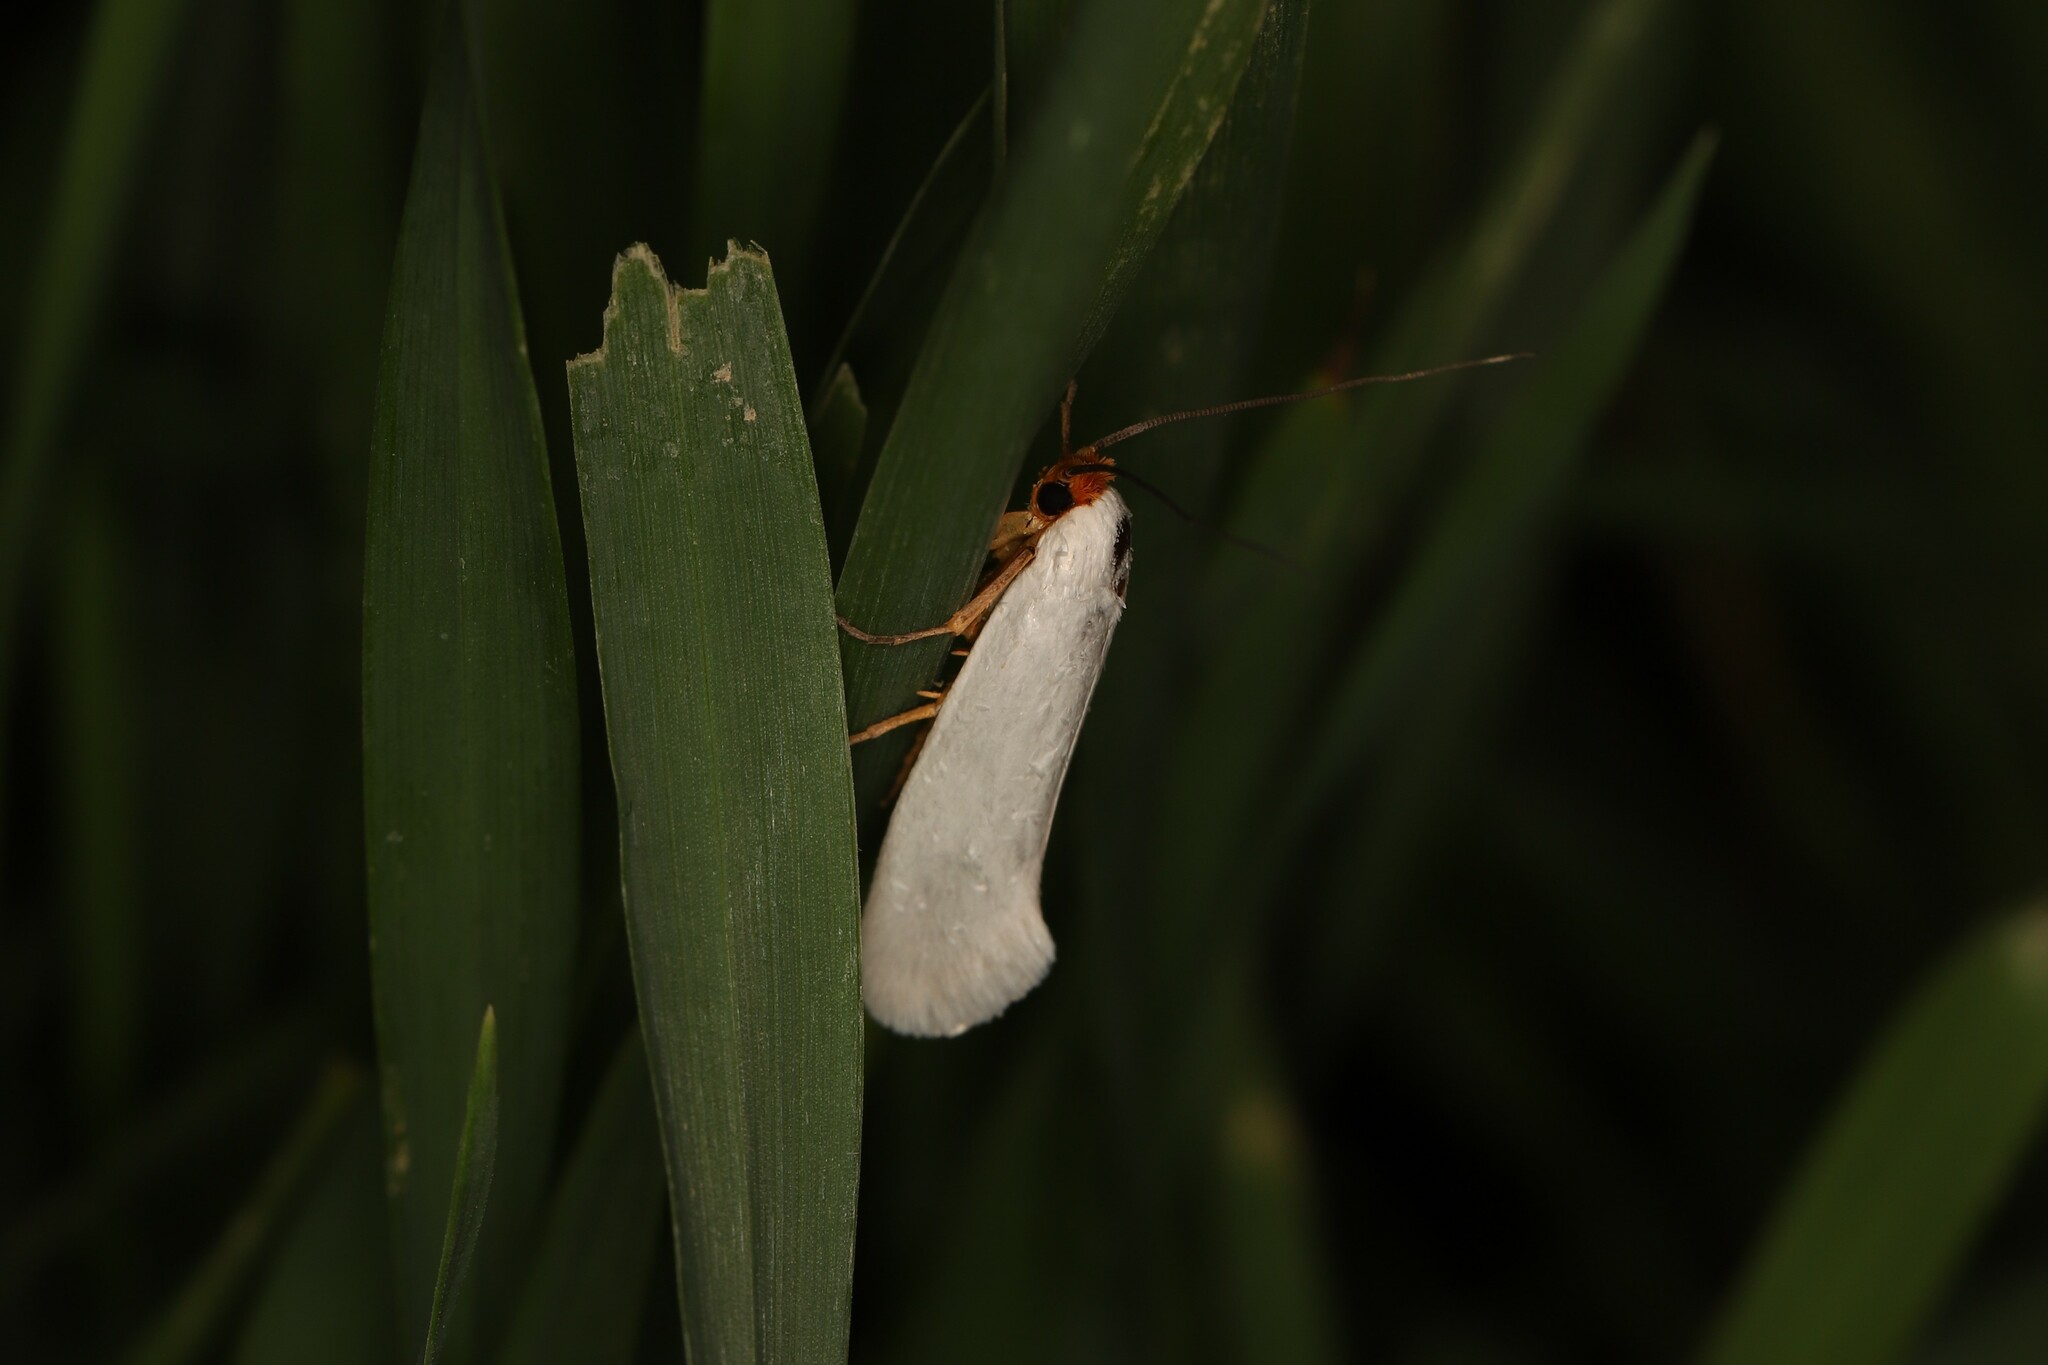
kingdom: Animalia
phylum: Arthropoda
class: Insecta
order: Lepidoptera
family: Tineidae
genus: Edosa
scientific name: Edosa lardatella
